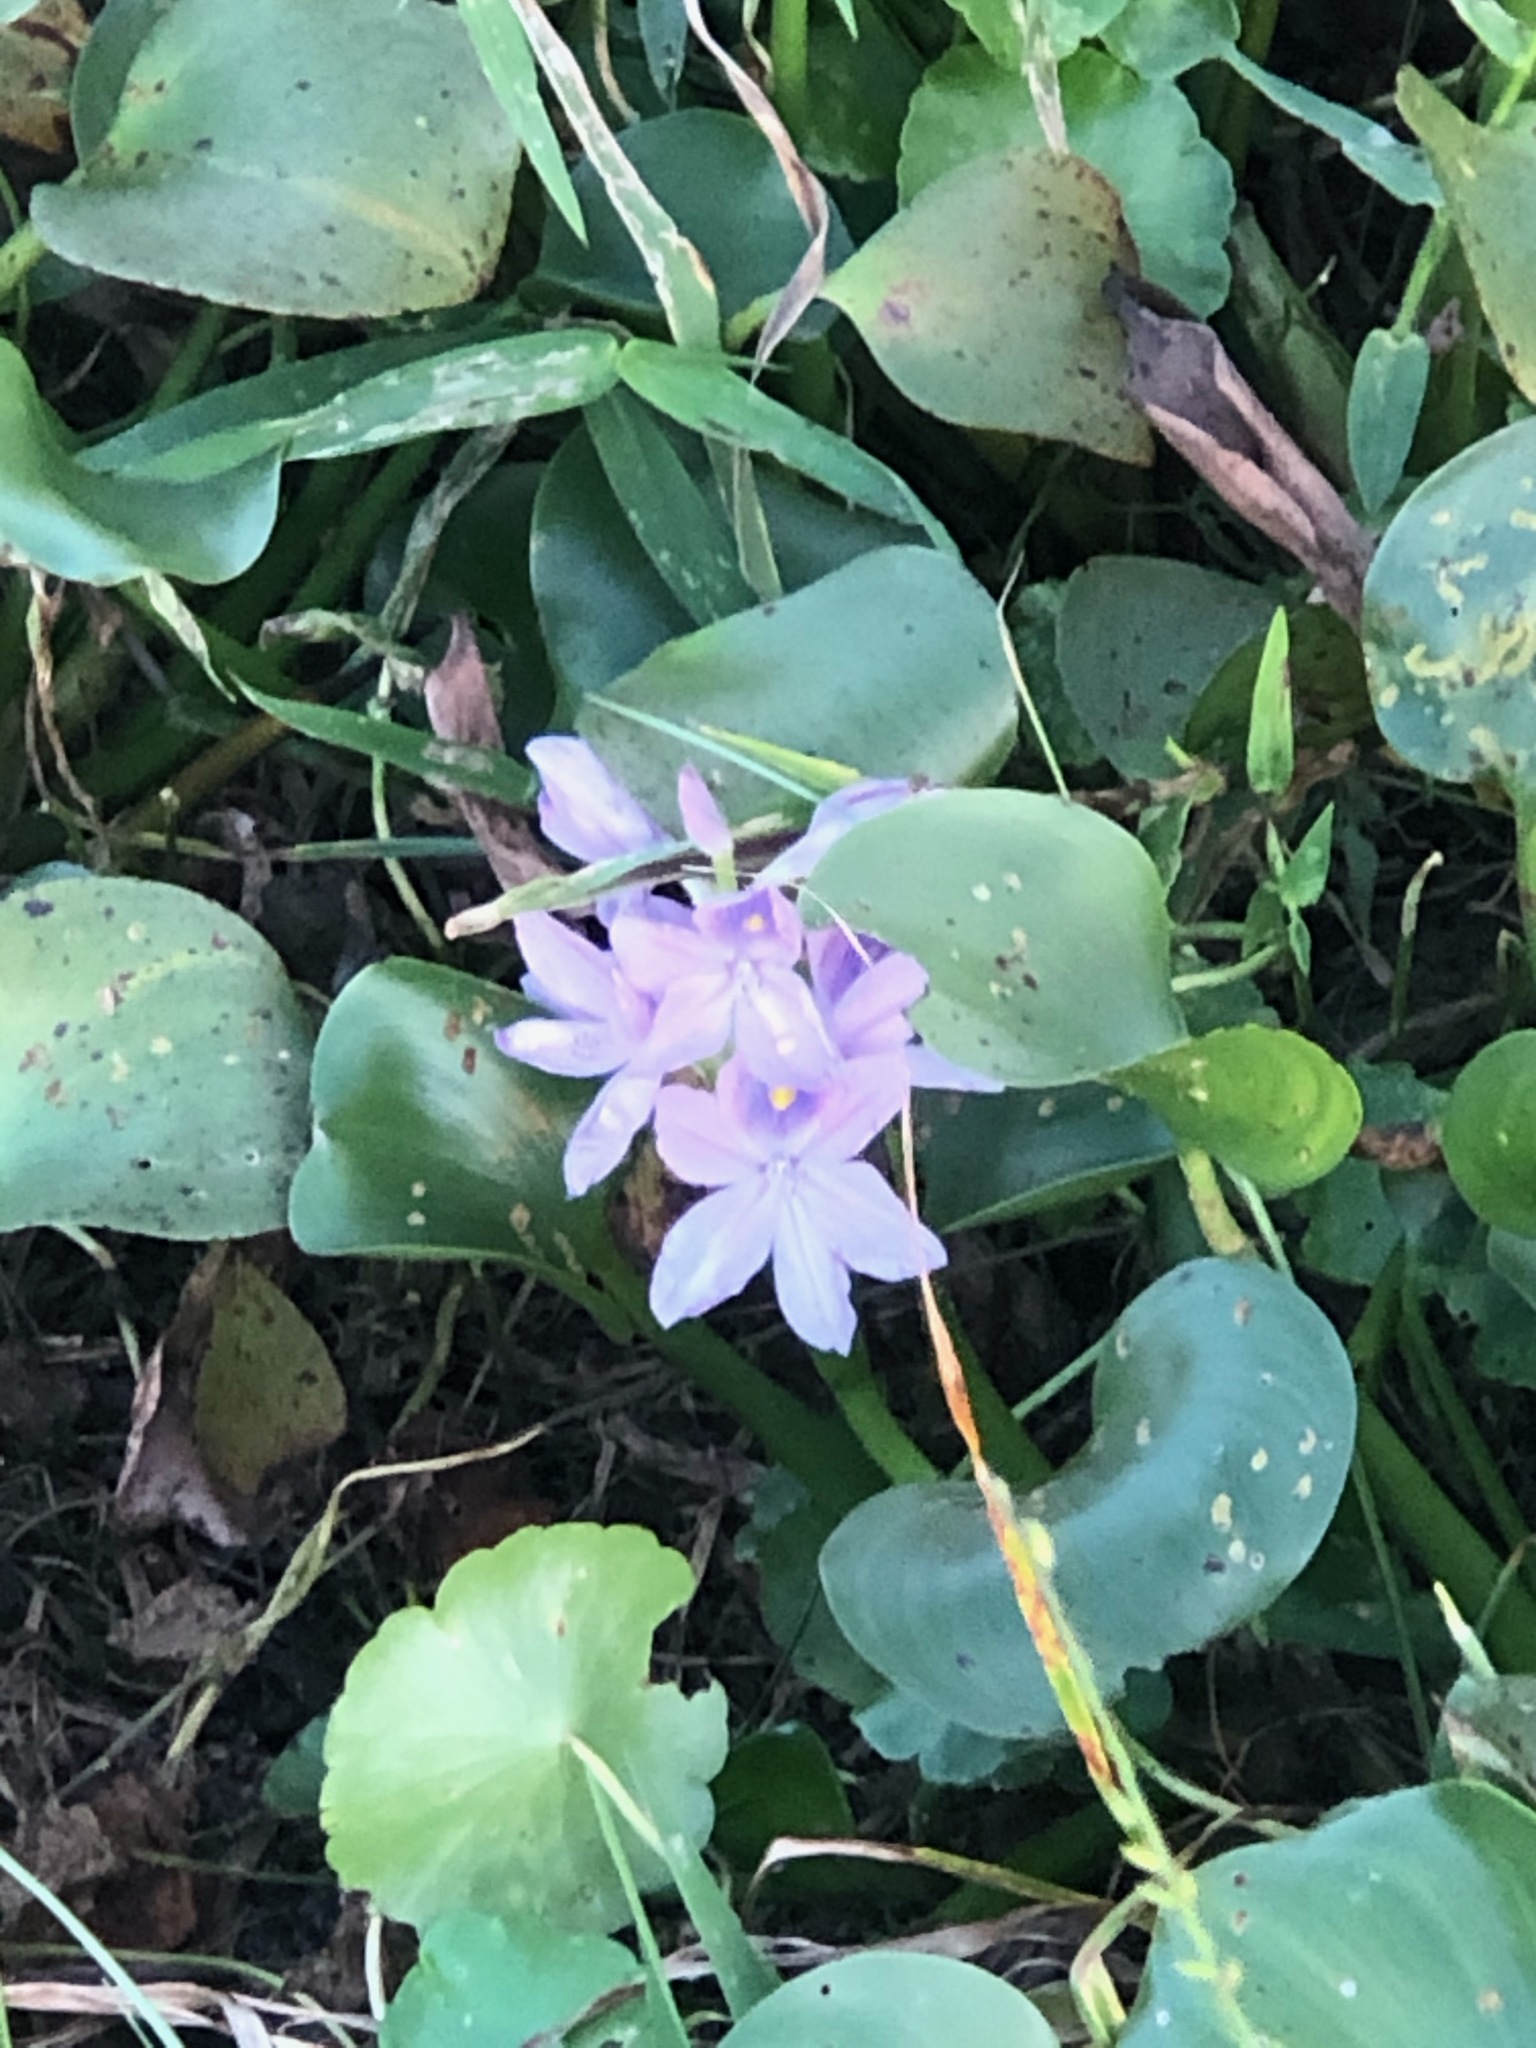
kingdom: Plantae
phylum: Tracheophyta
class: Liliopsida
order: Commelinales
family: Pontederiaceae
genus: Pontederia
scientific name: Pontederia crassipes
